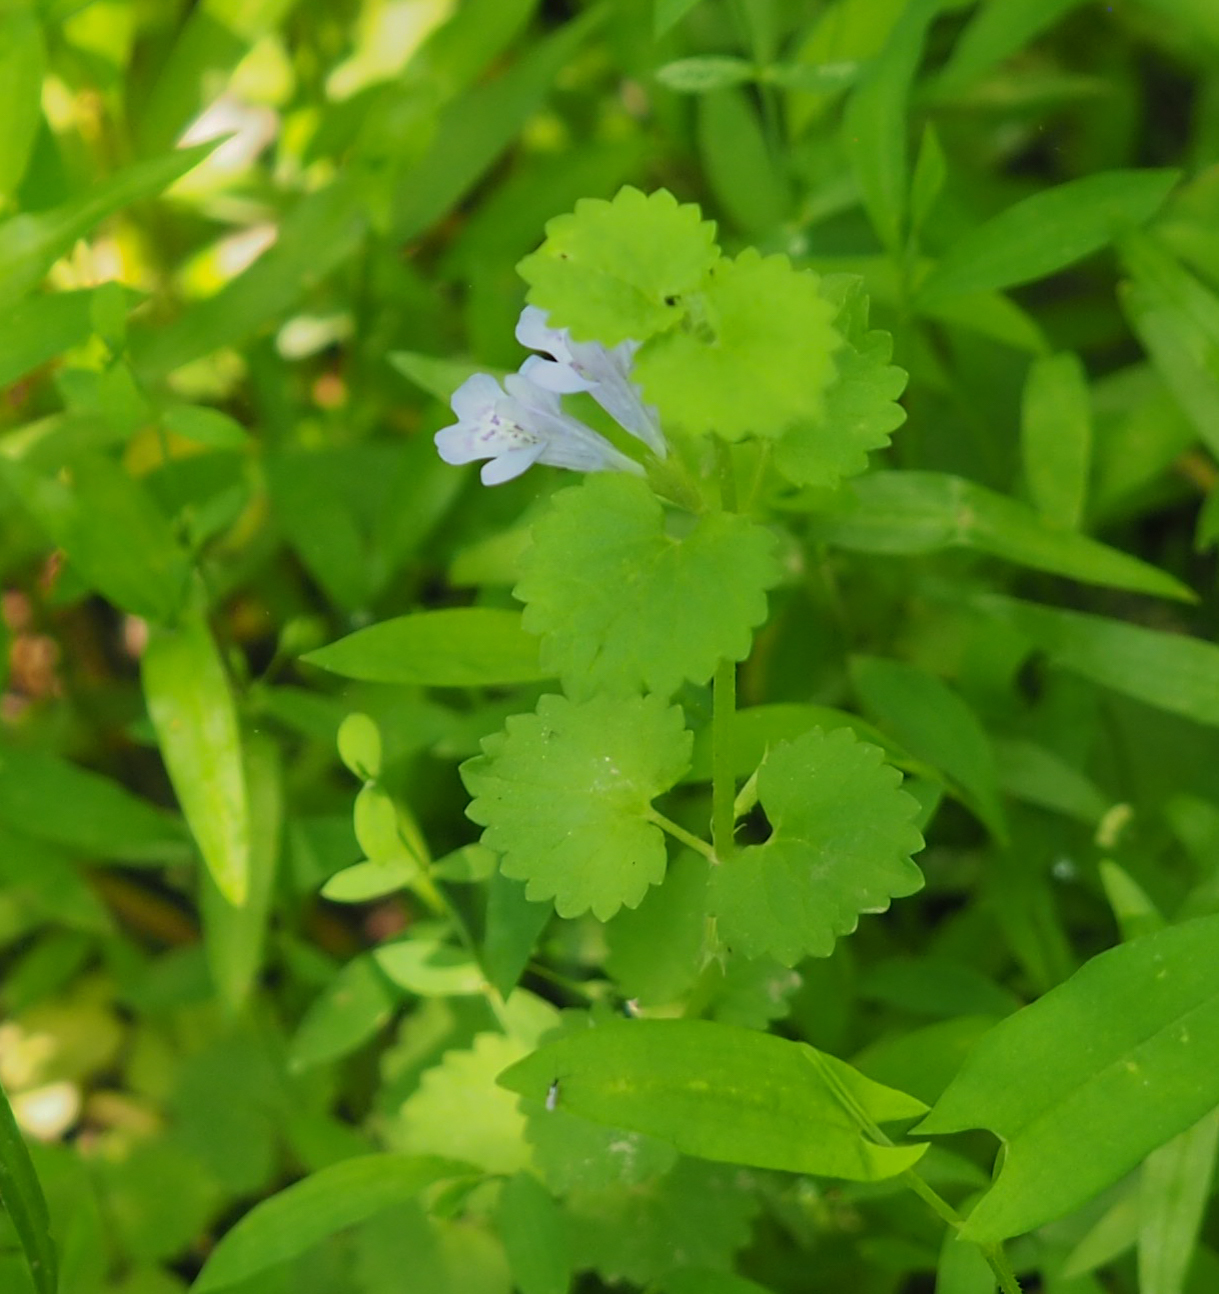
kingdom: Plantae
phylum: Tracheophyta
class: Magnoliopsida
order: Lamiales
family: Lamiaceae
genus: Glechoma
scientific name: Glechoma hederacea
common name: Ground ivy
